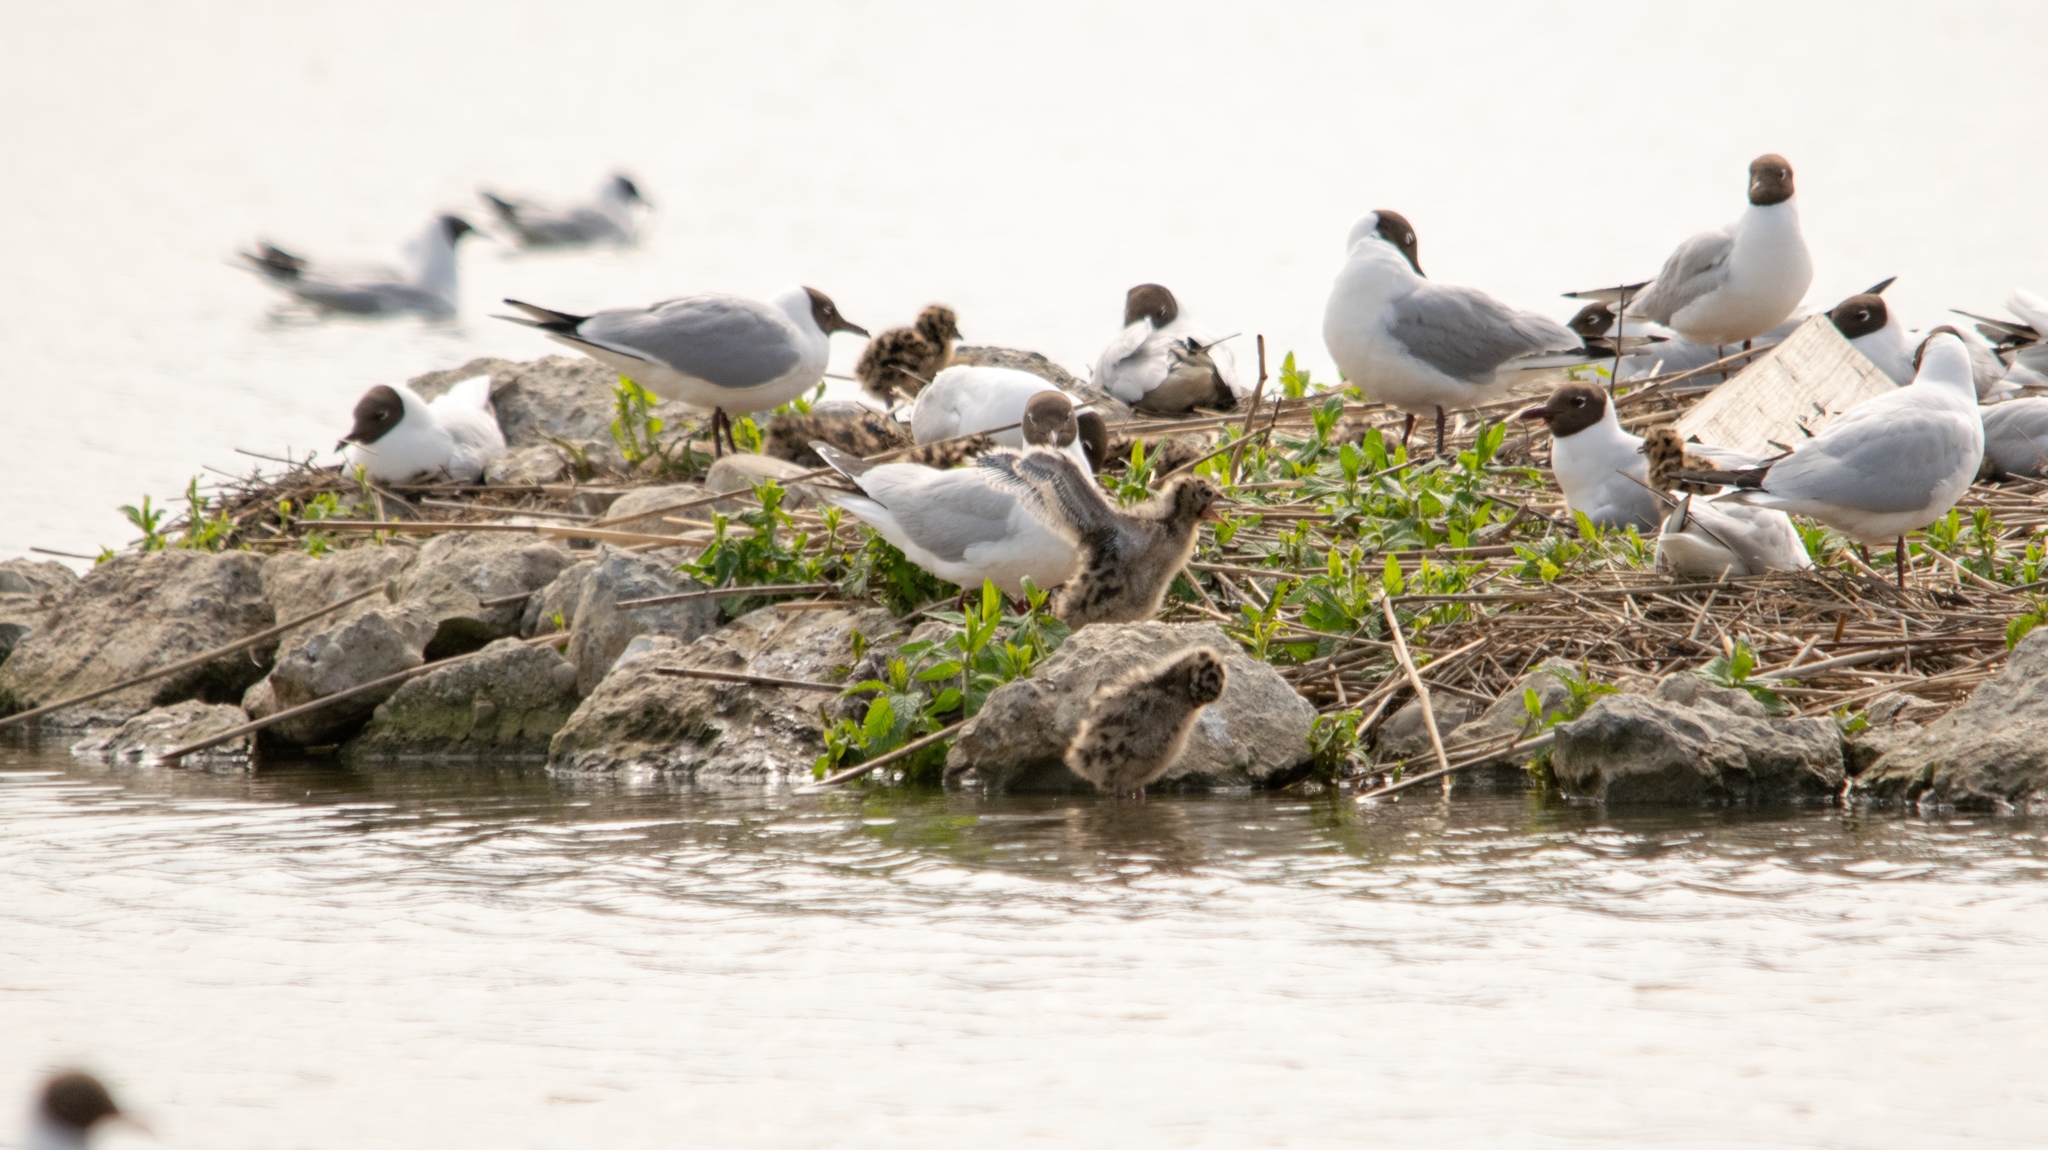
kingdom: Animalia
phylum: Chordata
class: Aves
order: Charadriiformes
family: Laridae
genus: Chroicocephalus
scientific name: Chroicocephalus ridibundus
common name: Black-headed gull
